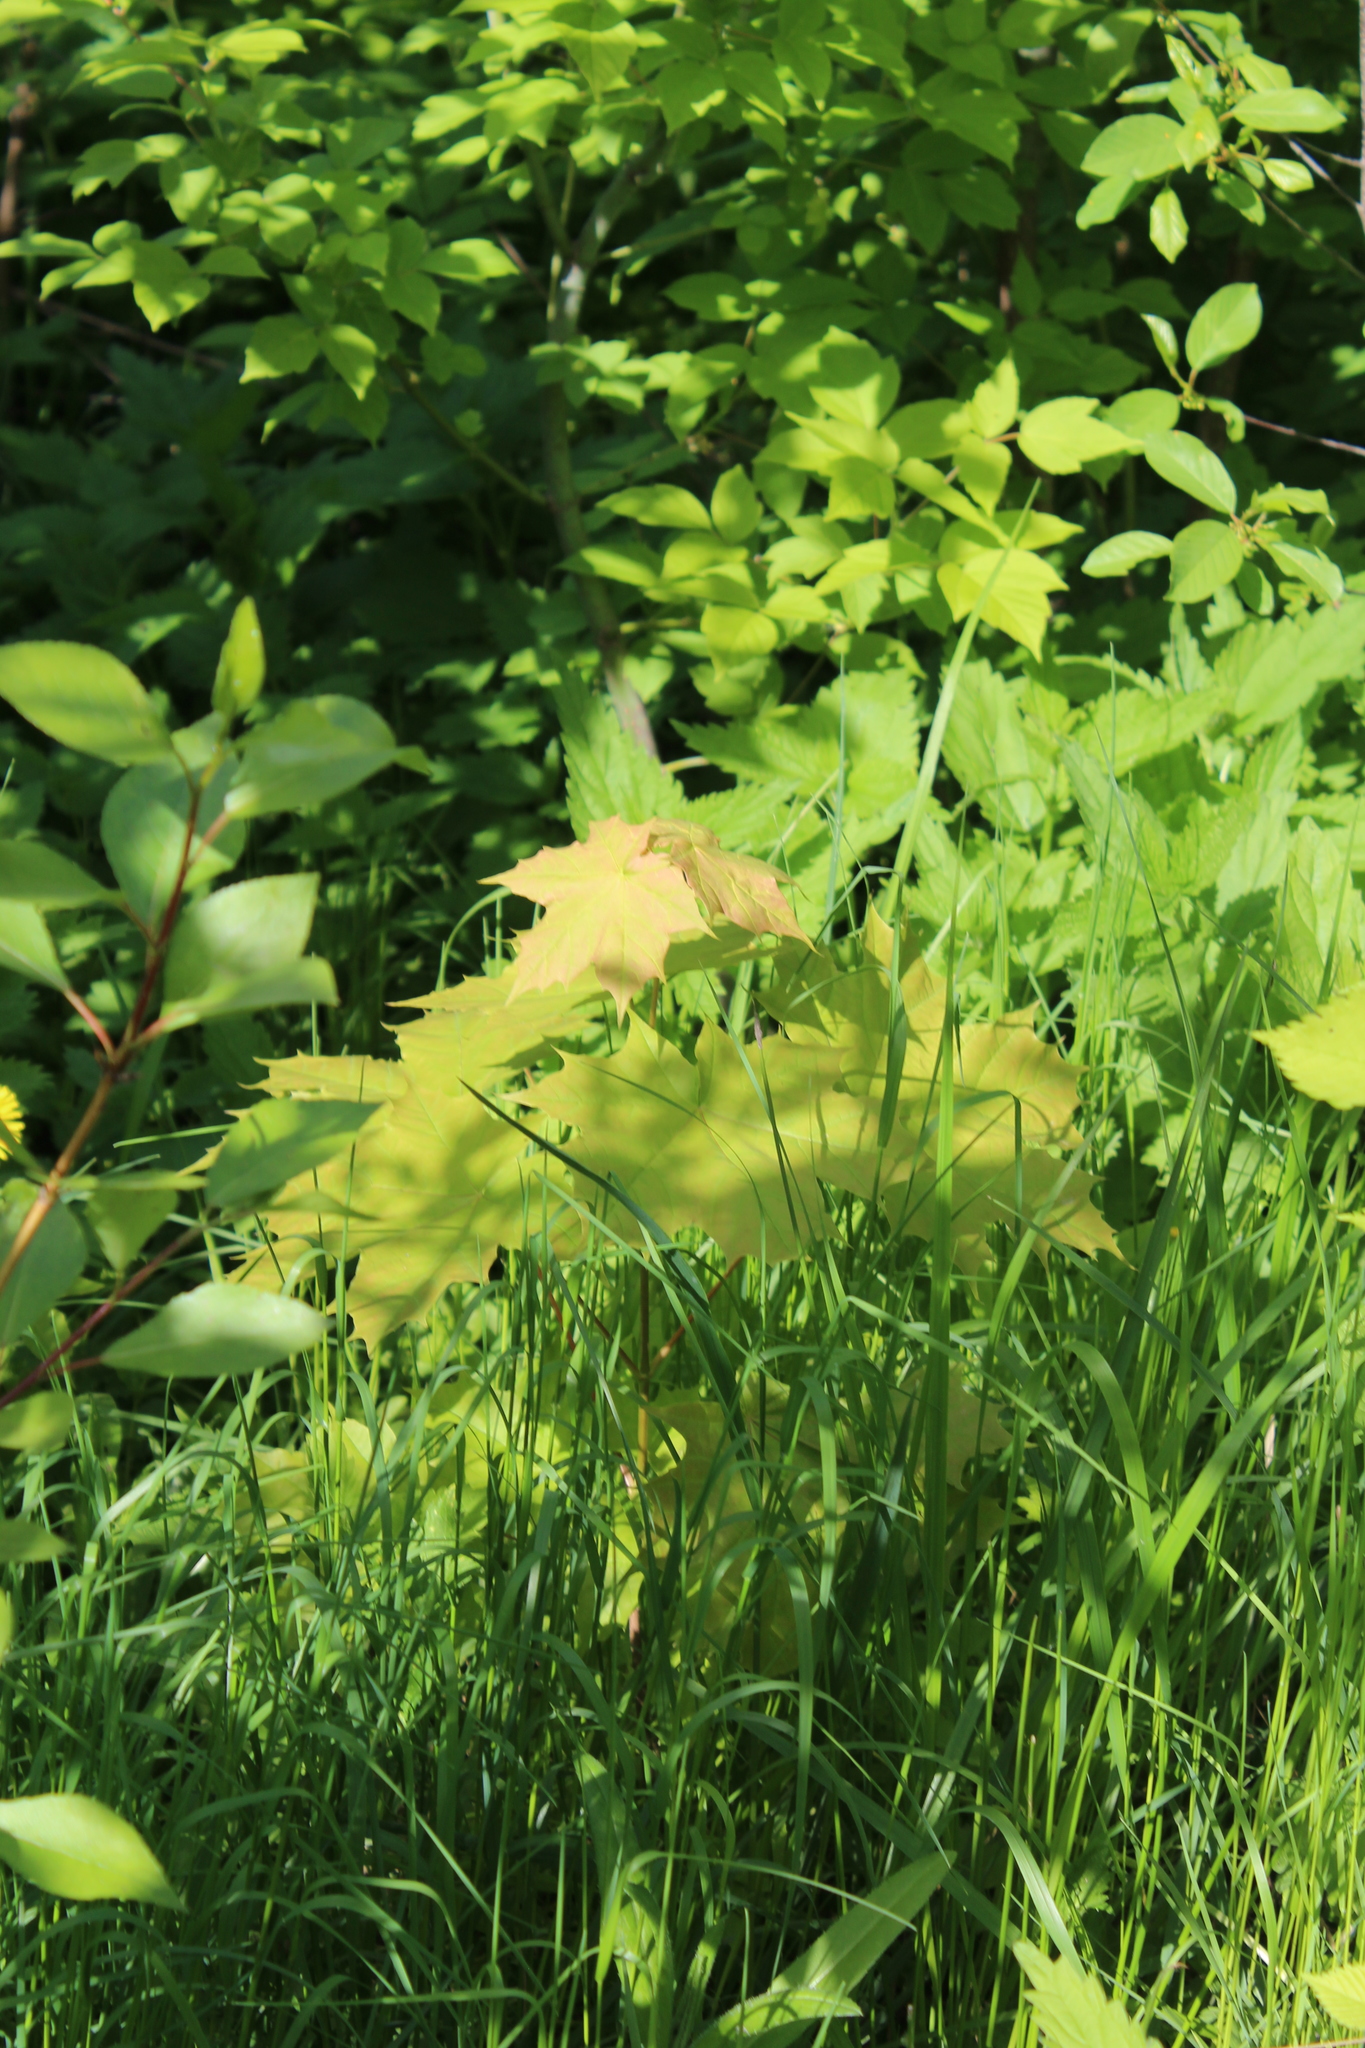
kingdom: Plantae
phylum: Tracheophyta
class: Magnoliopsida
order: Sapindales
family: Sapindaceae
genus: Acer
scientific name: Acer platanoides
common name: Norway maple
